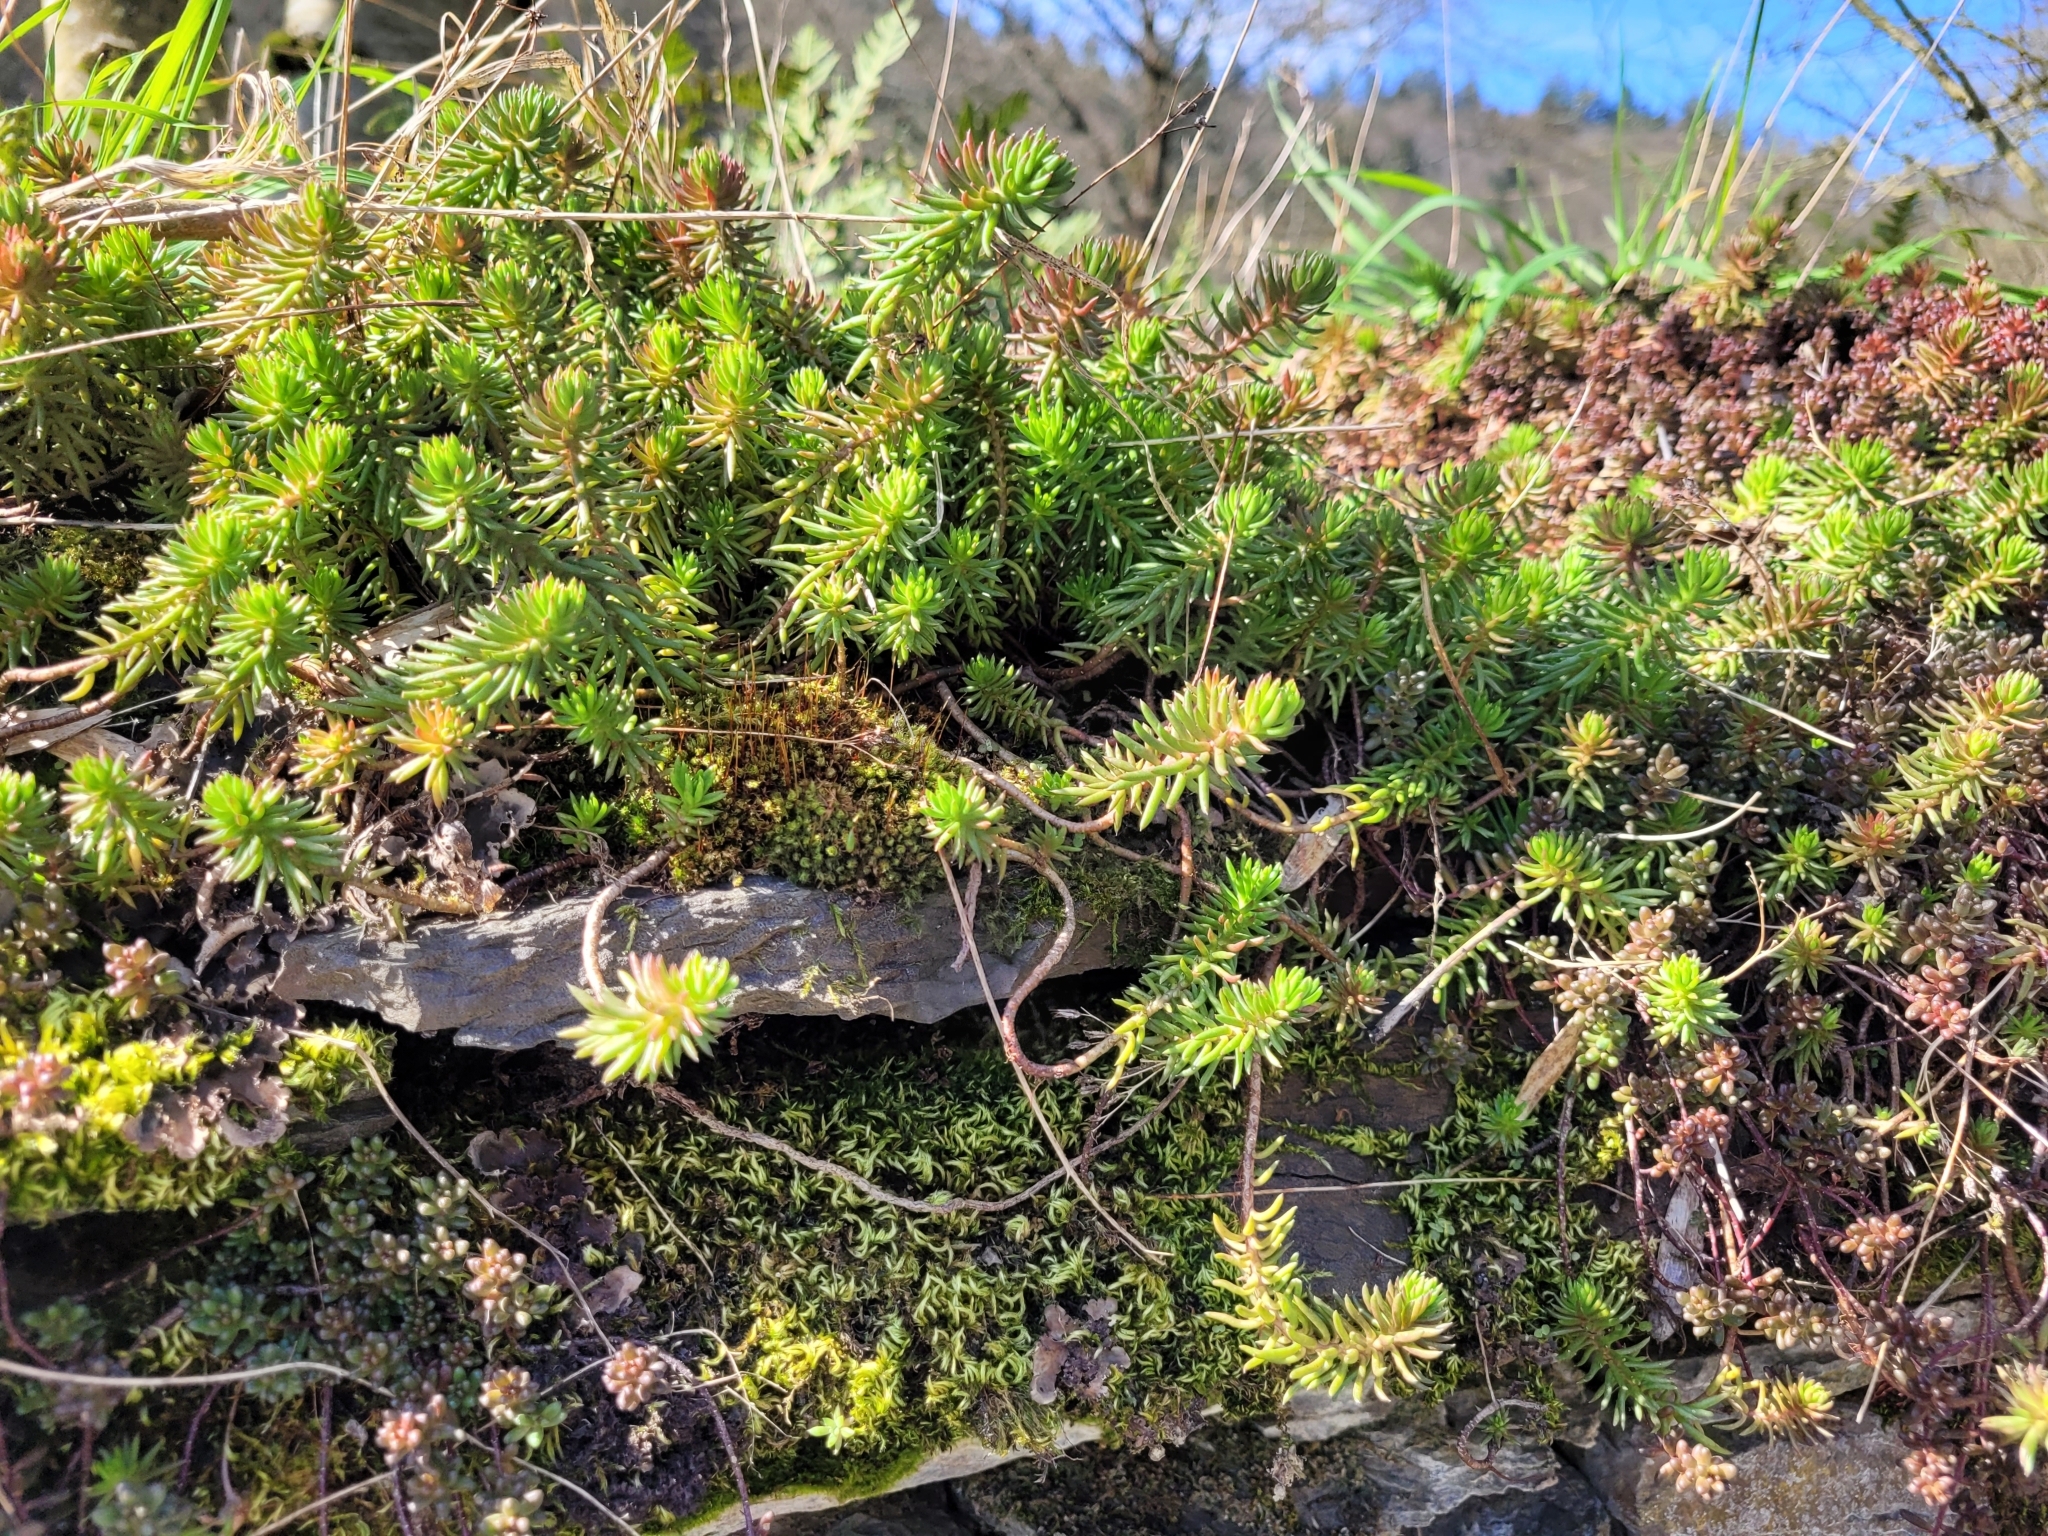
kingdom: Plantae
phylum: Tracheophyta
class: Magnoliopsida
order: Saxifragales
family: Crassulaceae
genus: Petrosedum
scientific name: Petrosedum rupestre
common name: Jenny's stonecrop
